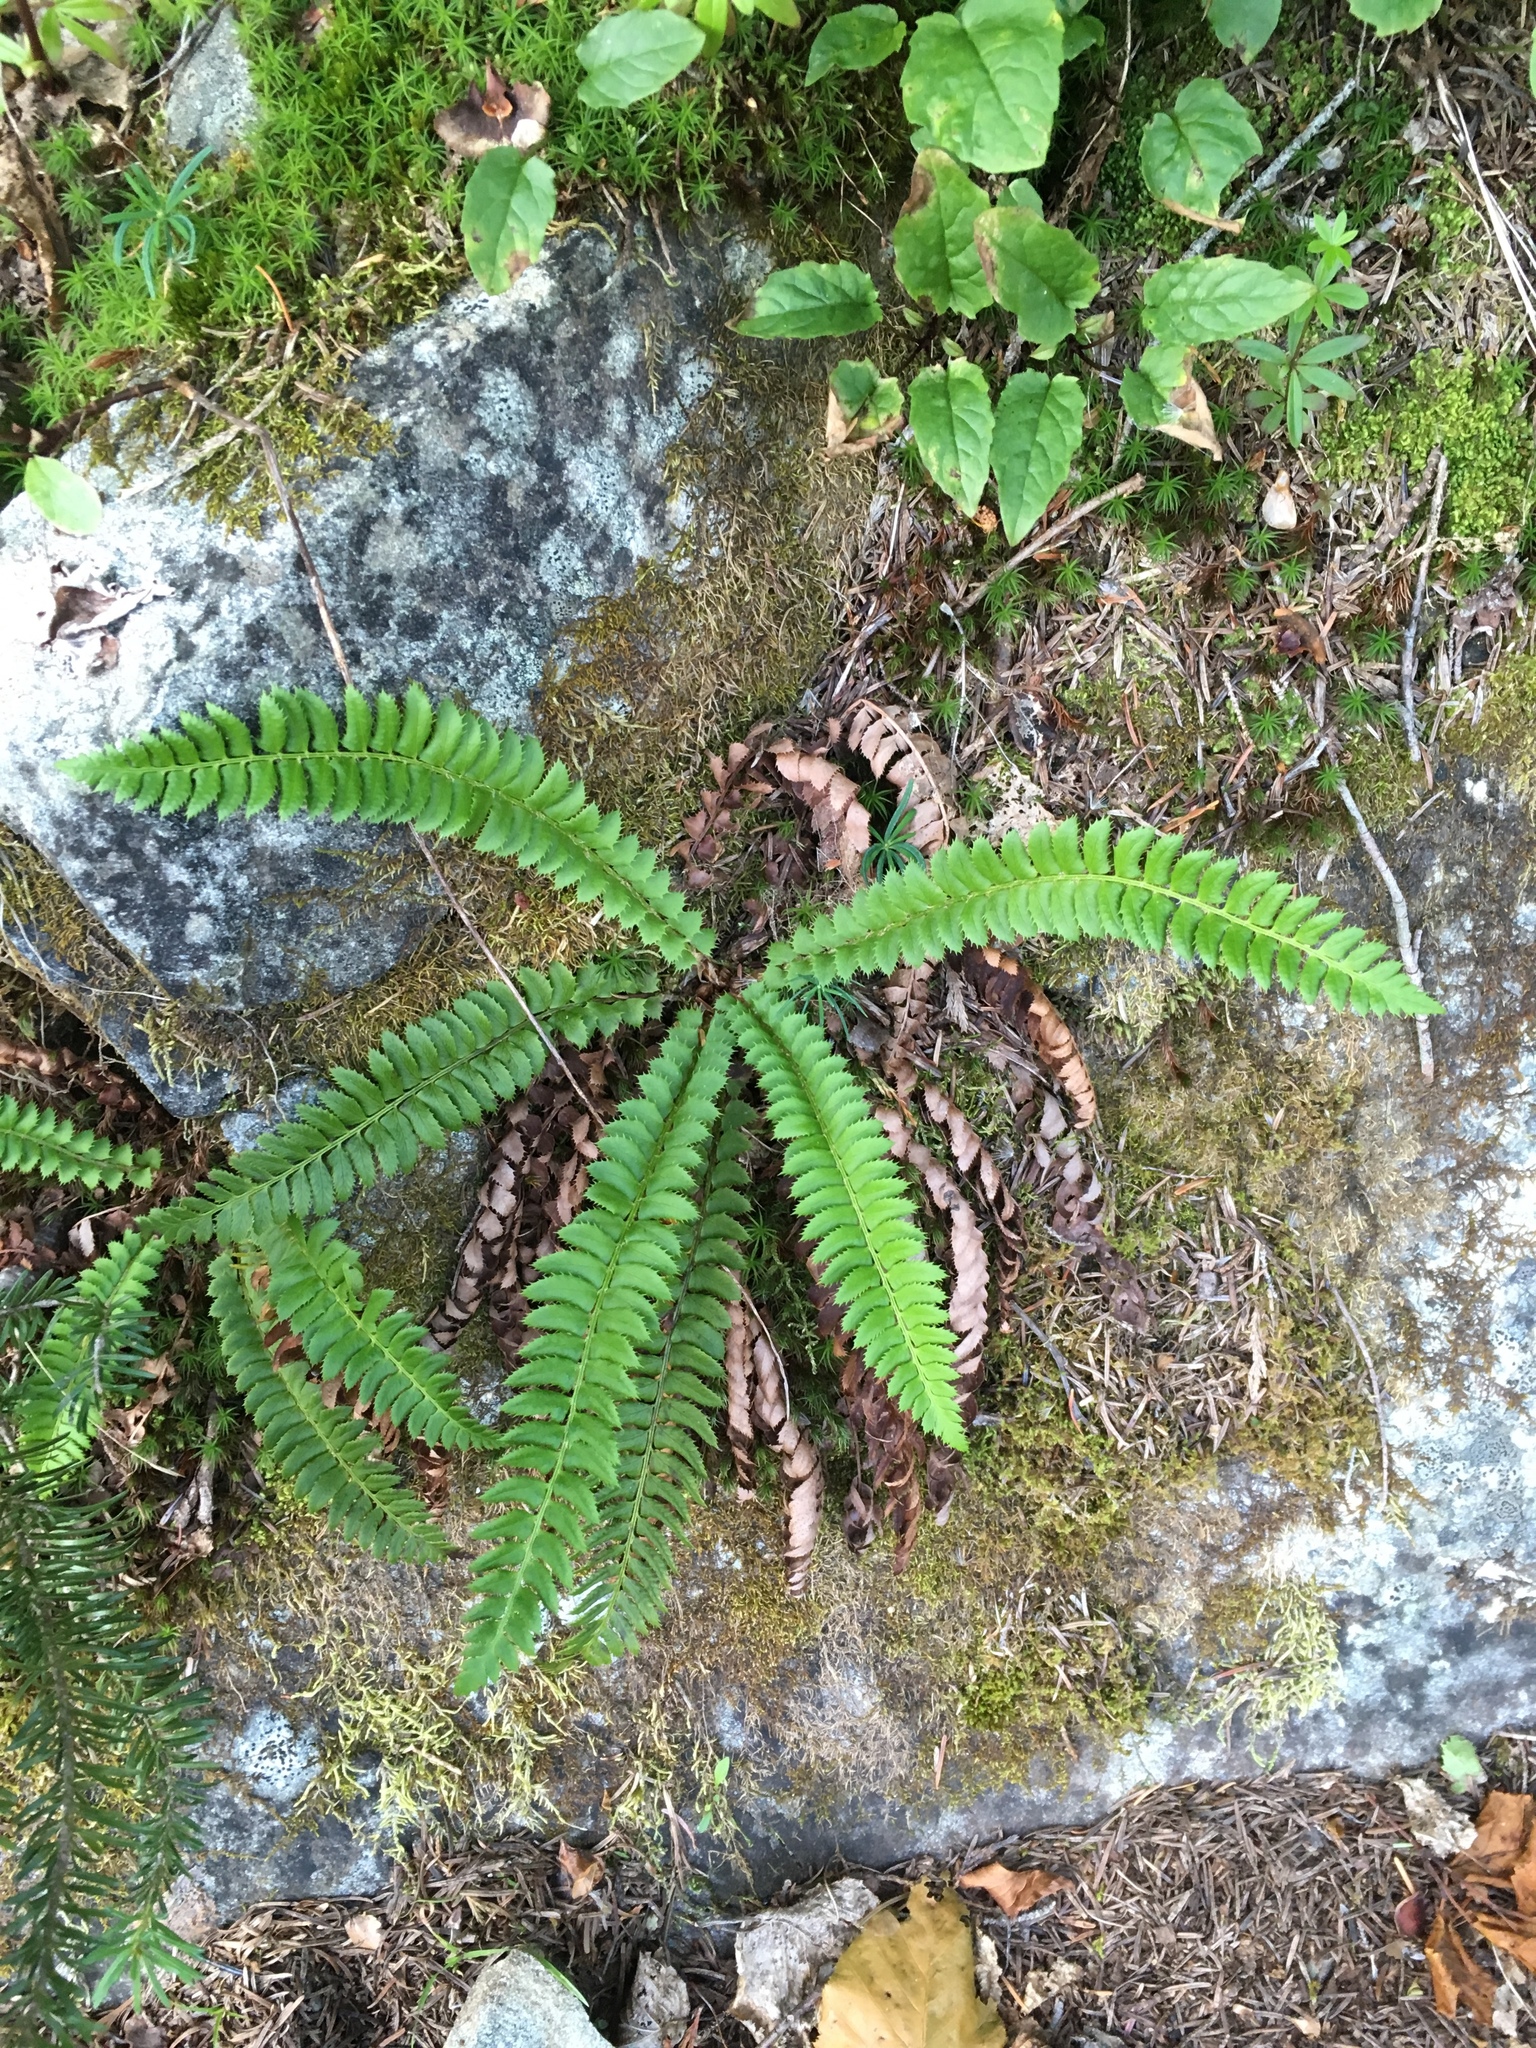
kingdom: Plantae
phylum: Tracheophyta
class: Polypodiopsida
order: Polypodiales
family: Dryopteridaceae
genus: Polystichum
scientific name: Polystichum lonchitis
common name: Holly fern
